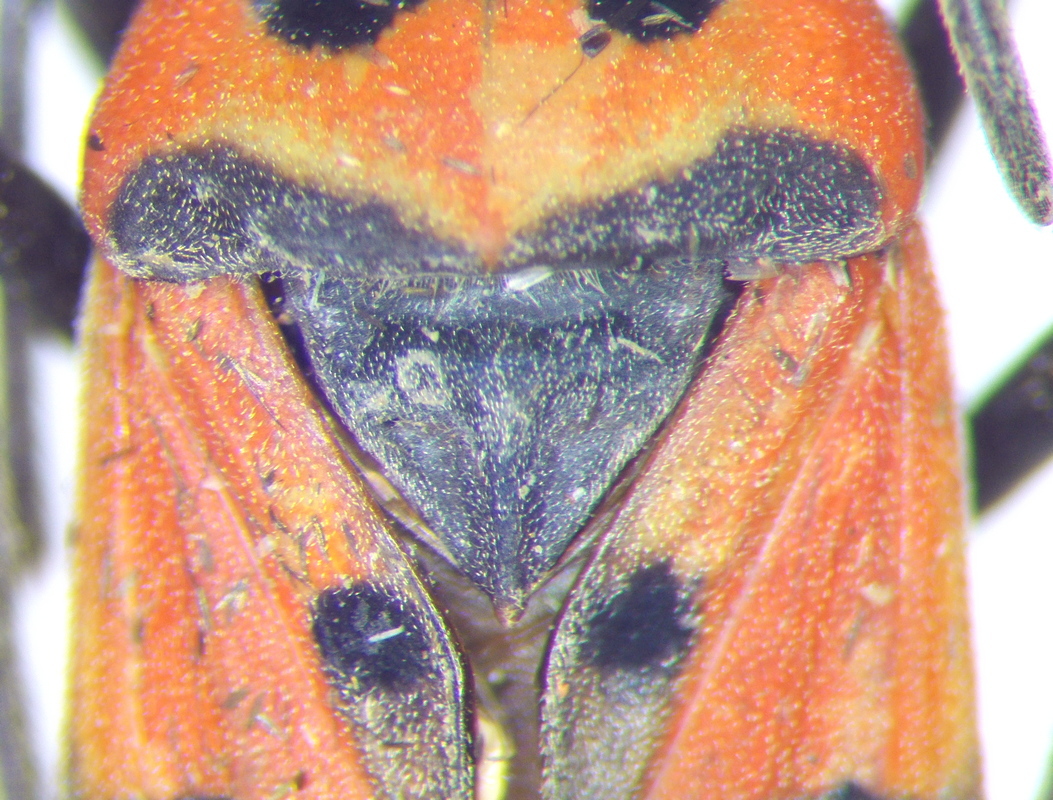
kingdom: Animalia
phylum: Arthropoda
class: Insecta
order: Hemiptera
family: Lygaeidae
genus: Lygaeus
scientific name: Lygaeus equestris
